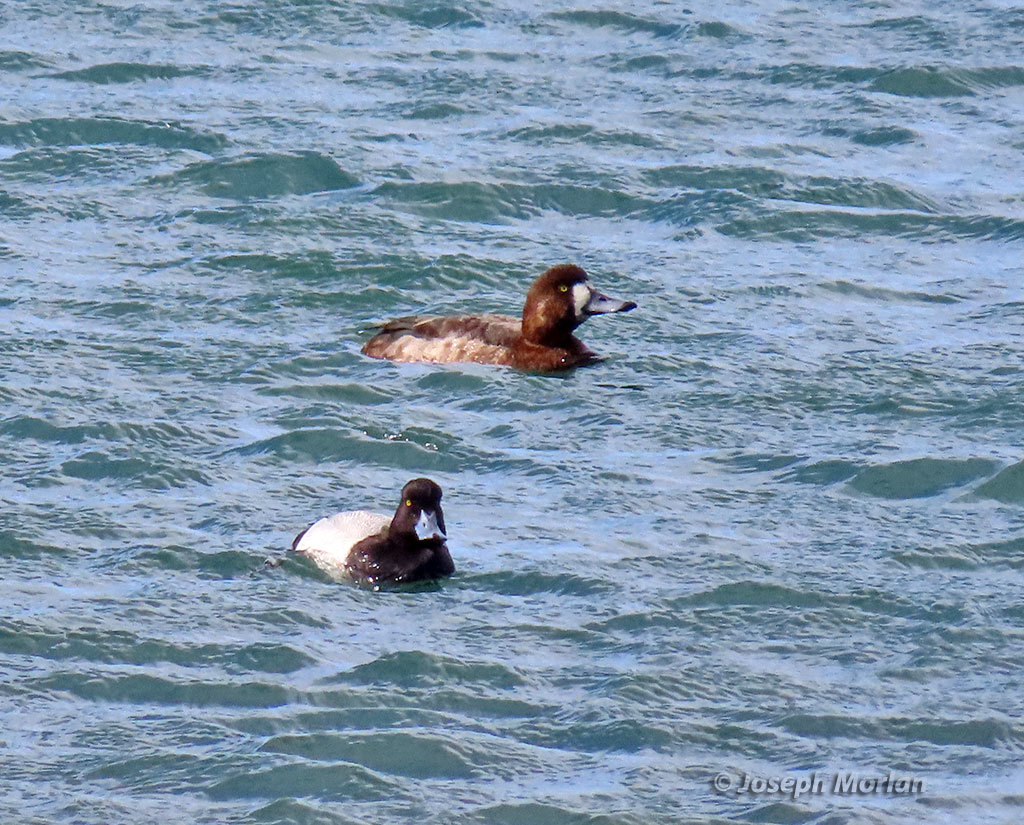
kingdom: Animalia
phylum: Chordata
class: Aves
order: Anseriformes
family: Anatidae
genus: Aythya
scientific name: Aythya marila
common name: Greater scaup
